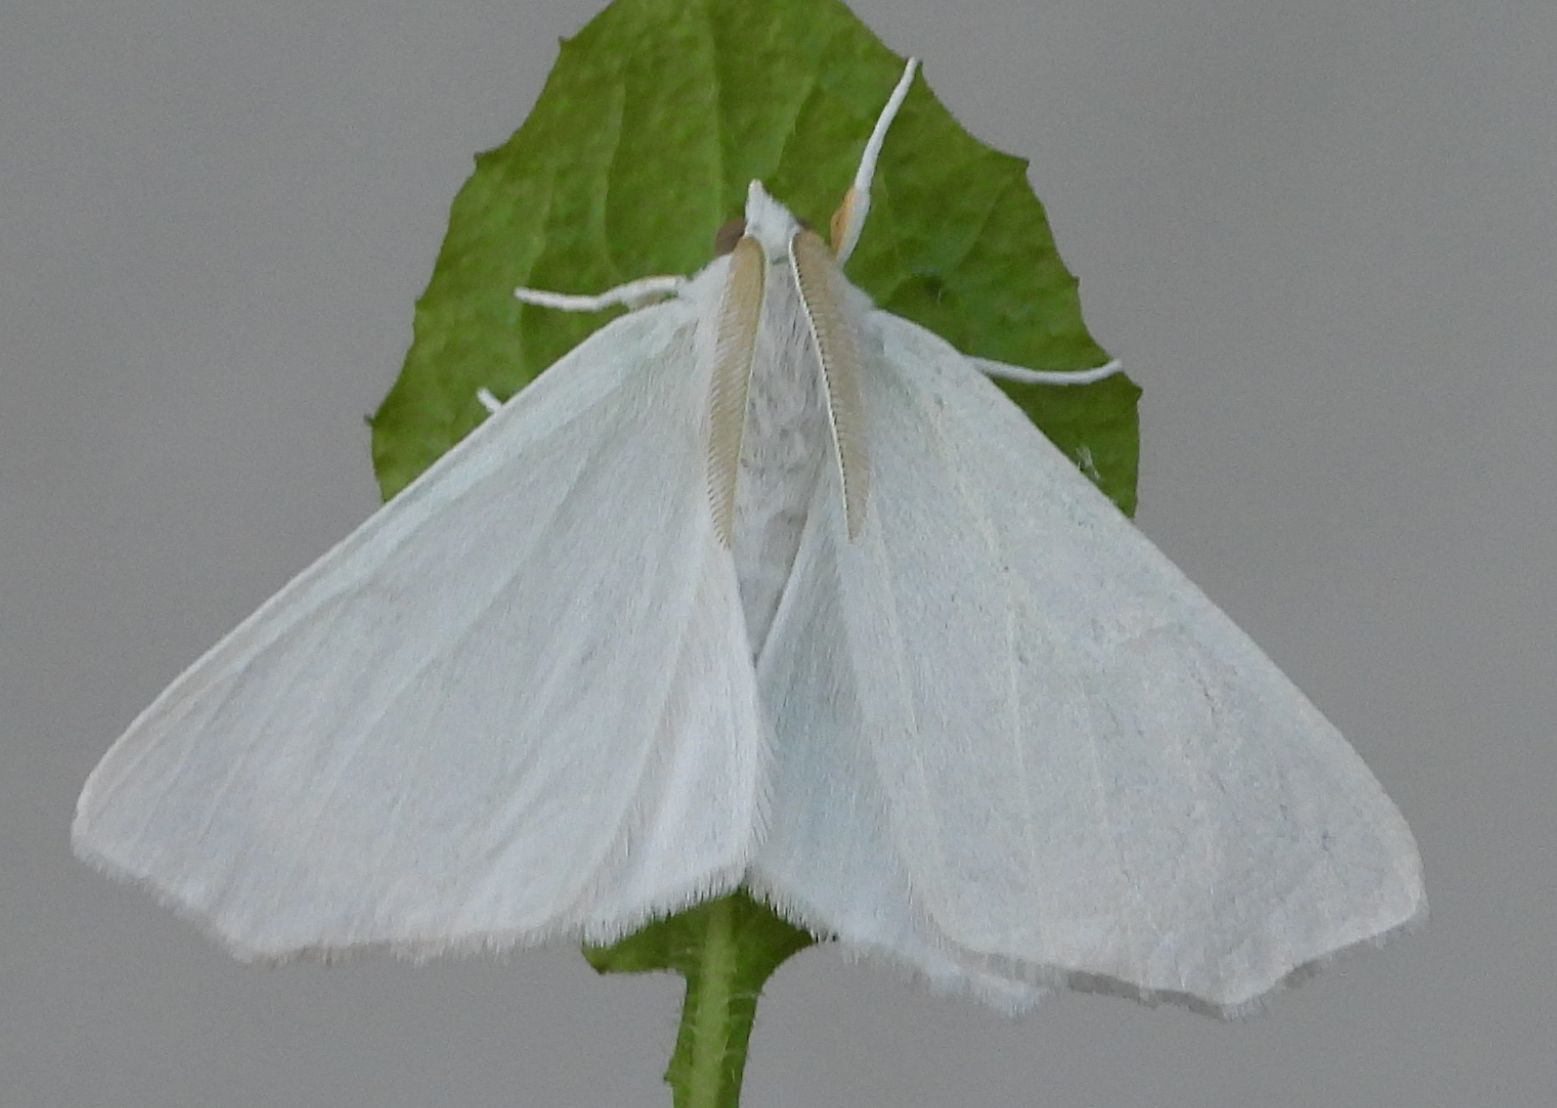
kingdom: Animalia
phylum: Arthropoda
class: Insecta
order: Lepidoptera
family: Geometridae
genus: Ennomos
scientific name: Ennomos subsignaria
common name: Elm spanworm
